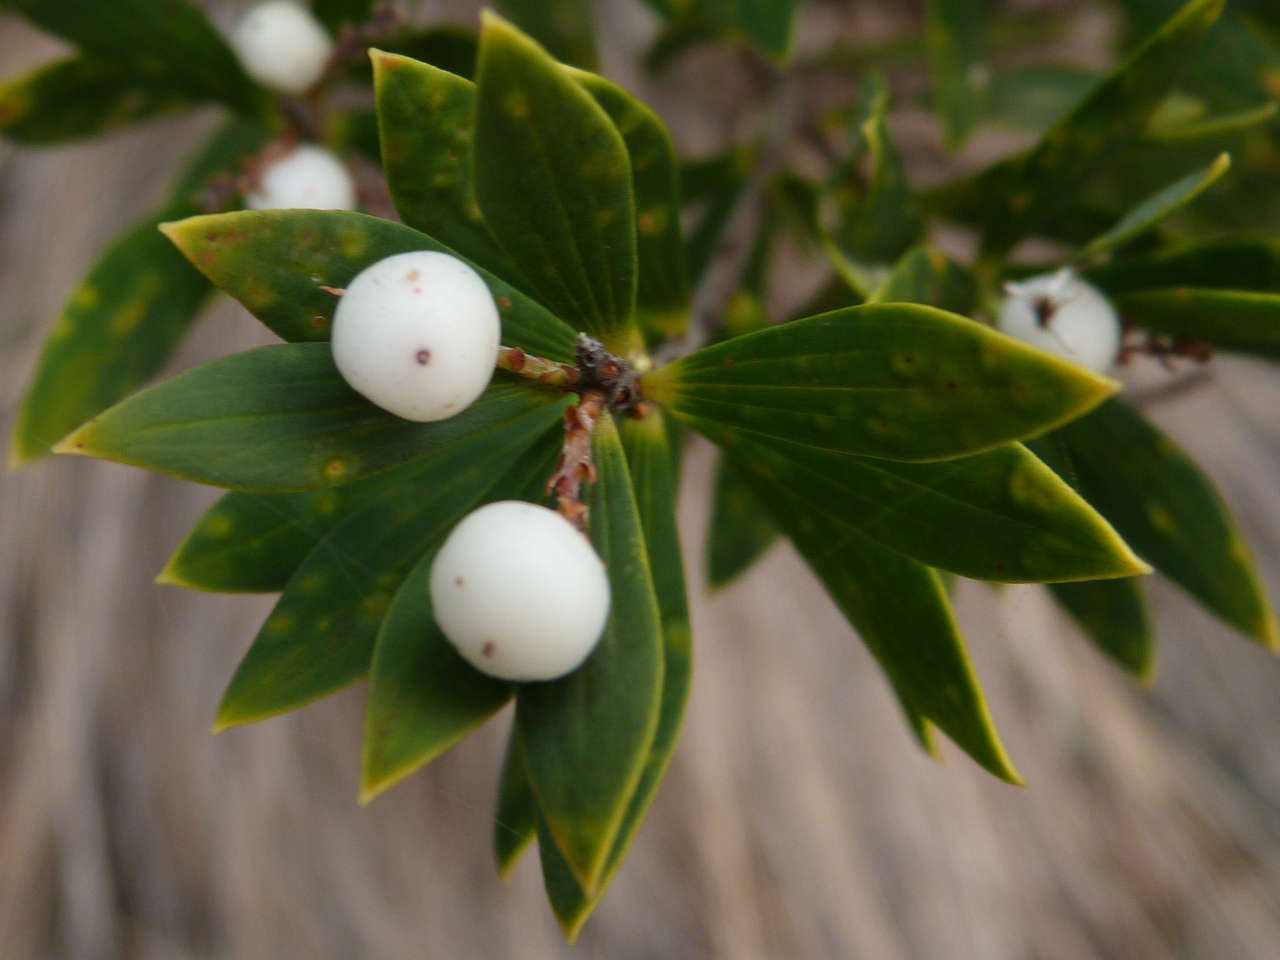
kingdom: Plantae
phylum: Tracheophyta
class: Magnoliopsida
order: Ericales
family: Ericaceae
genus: Leptecophylla
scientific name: Leptecophylla parvifolia
